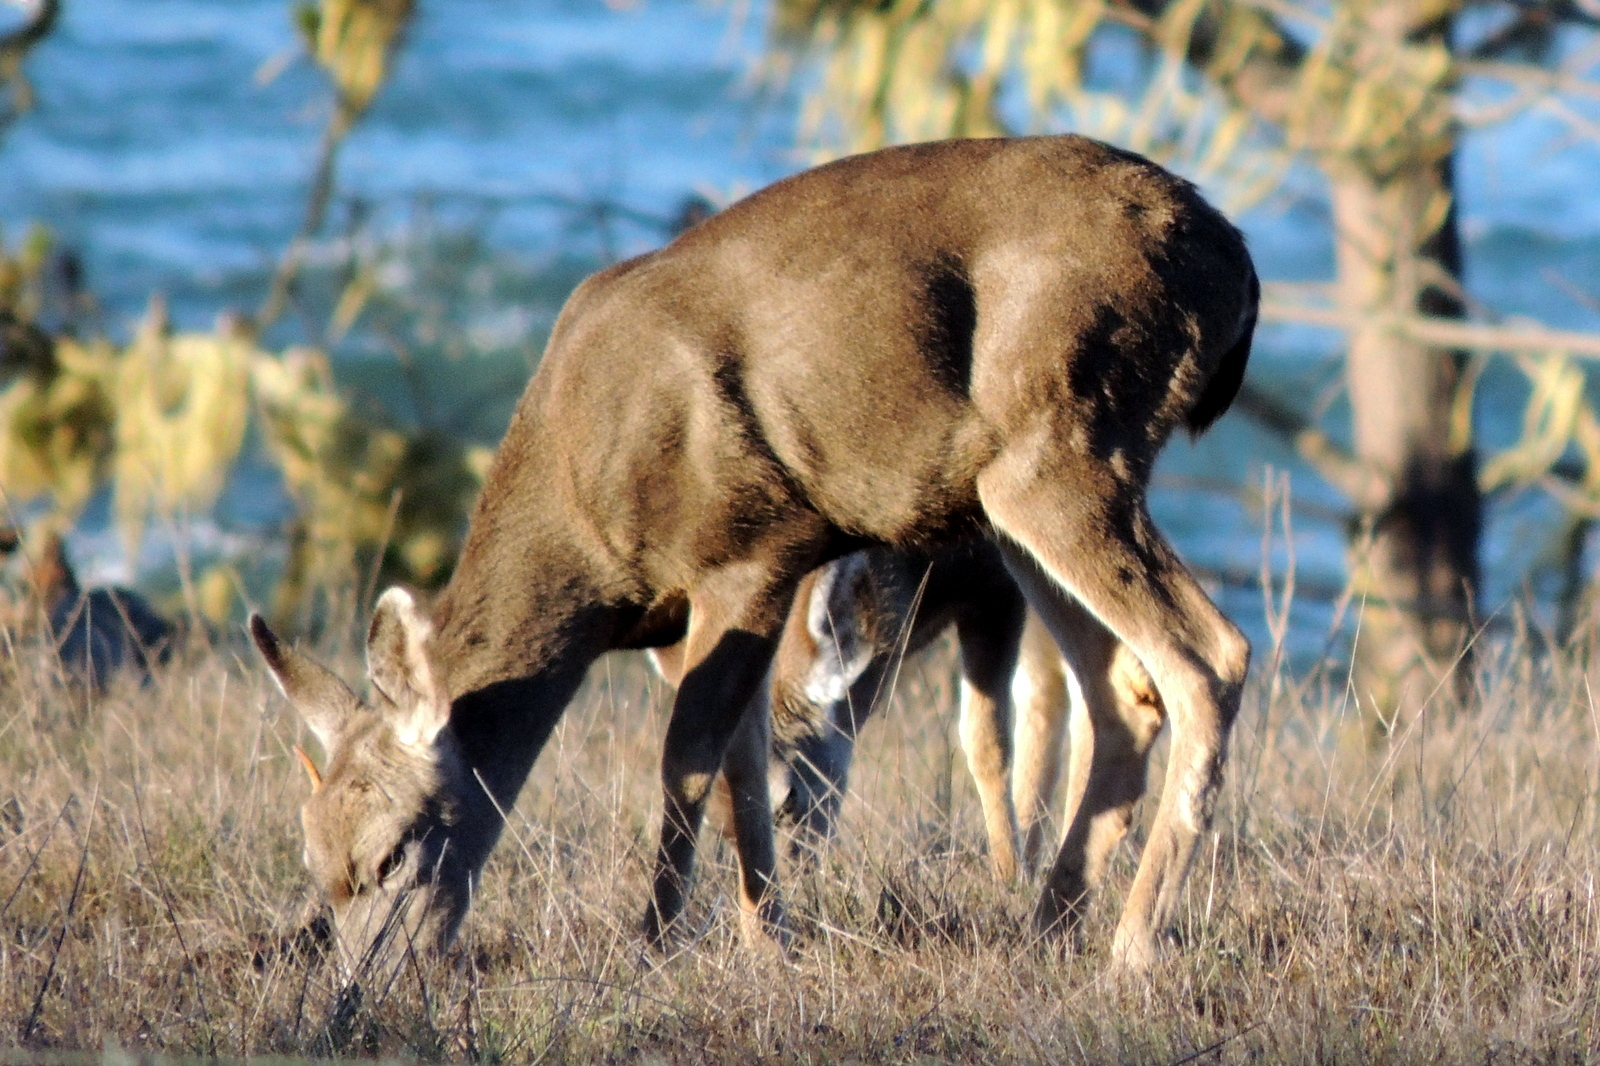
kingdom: Animalia
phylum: Chordata
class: Mammalia
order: Artiodactyla
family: Cervidae
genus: Odocoileus
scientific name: Odocoileus hemionus
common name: Mule deer
